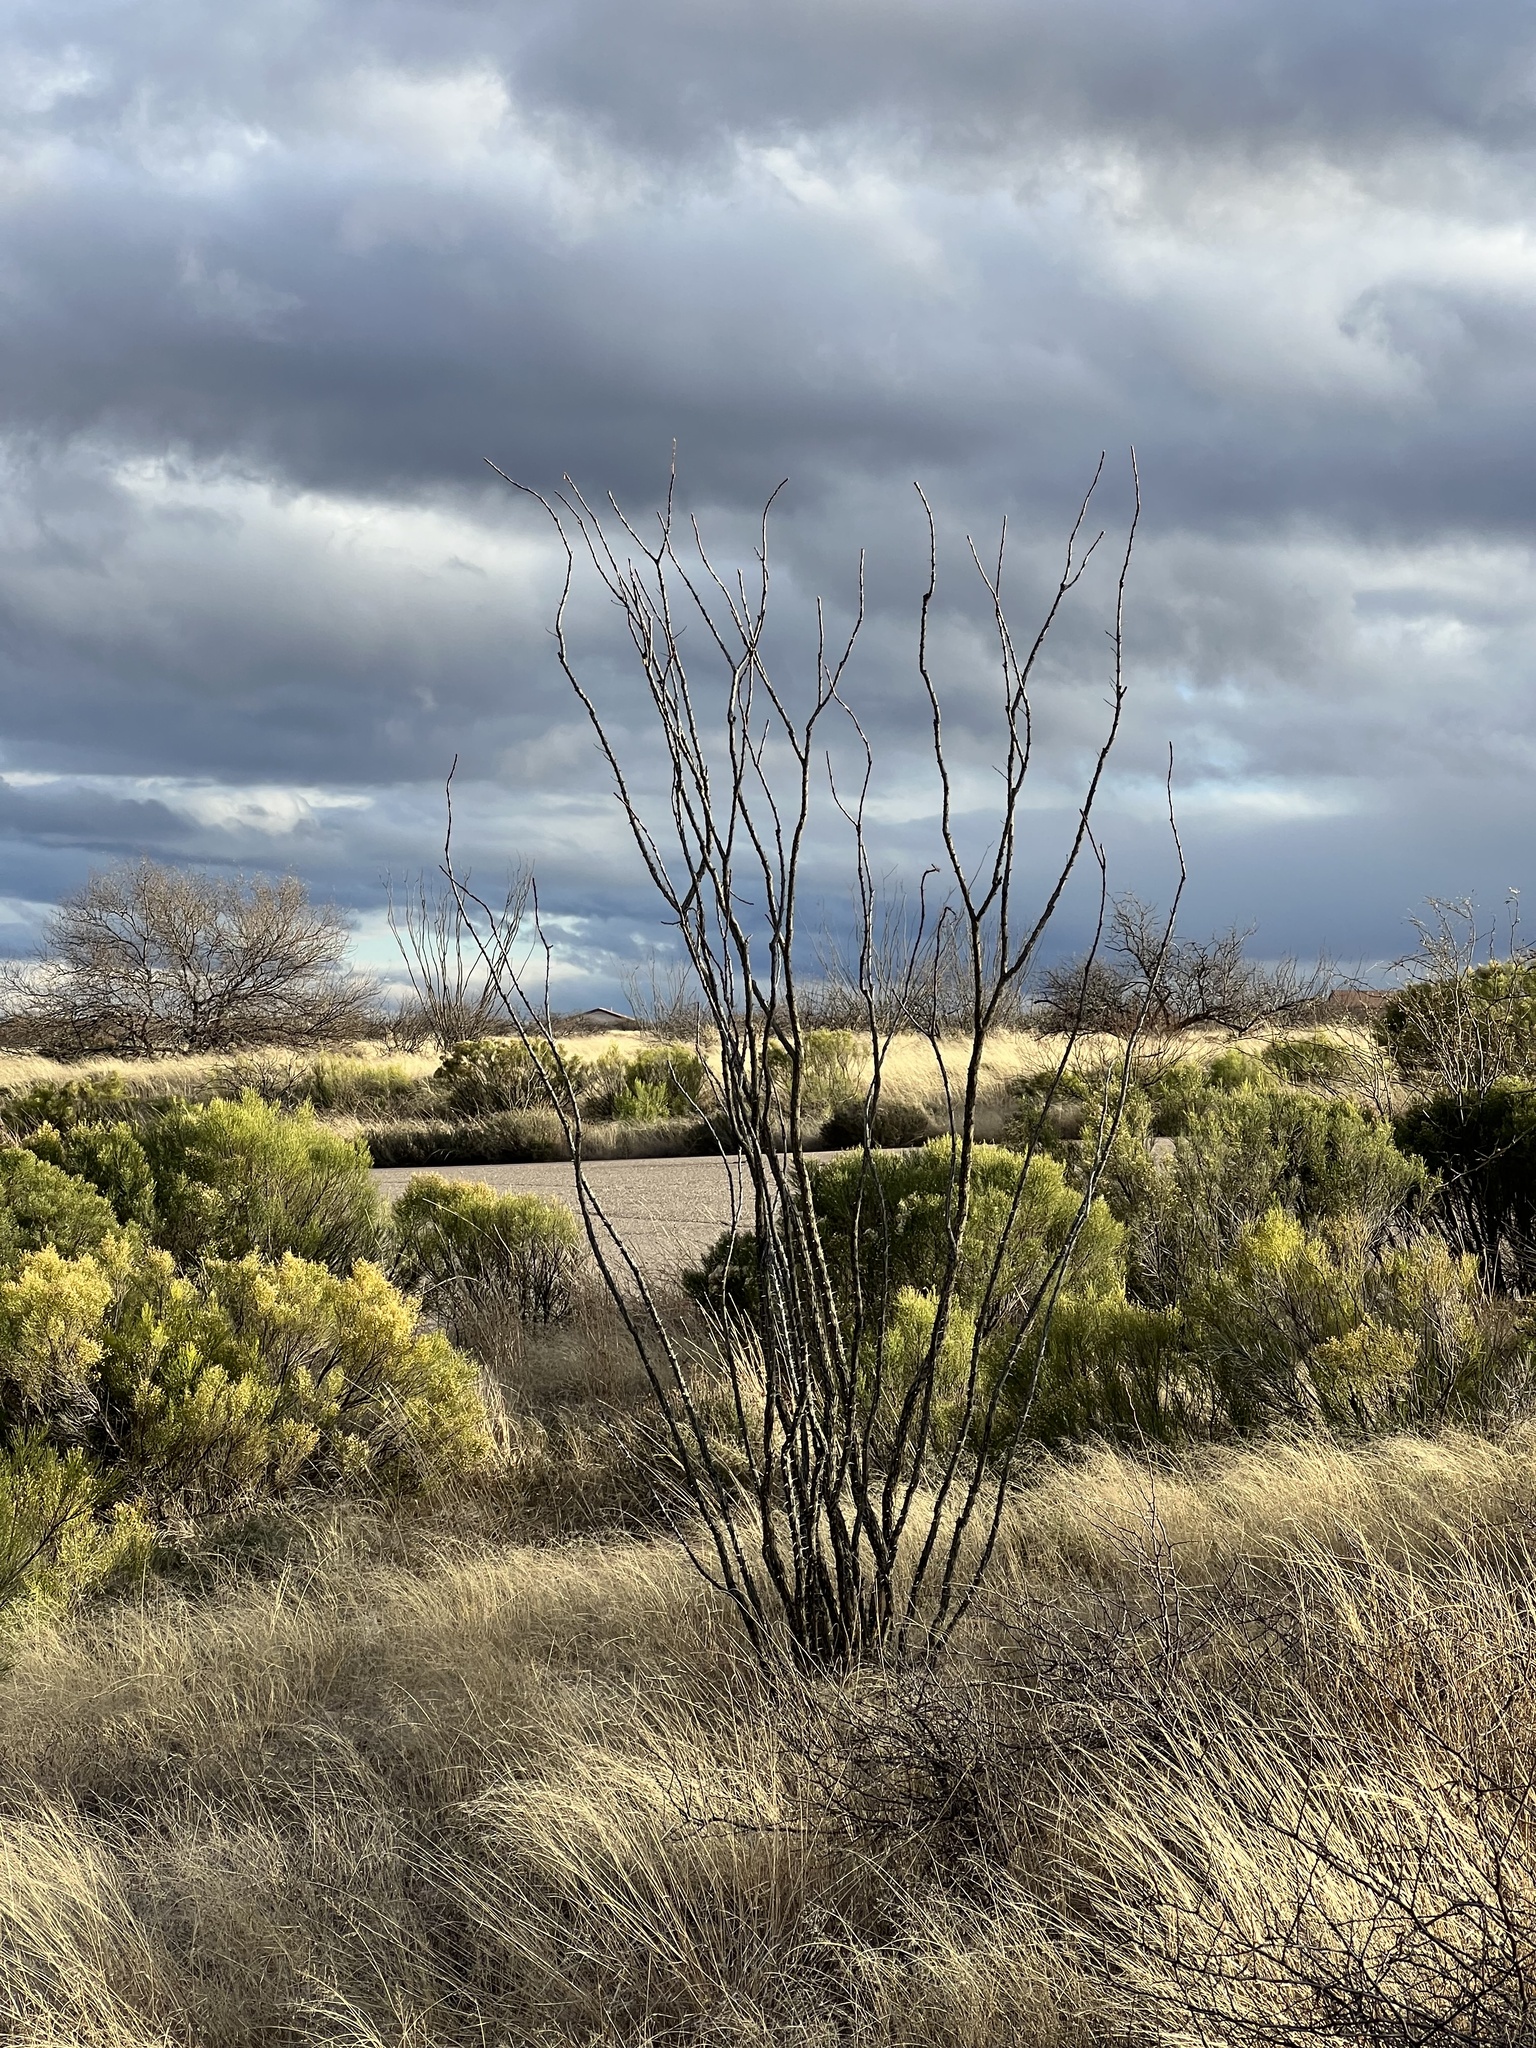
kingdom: Plantae
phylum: Tracheophyta
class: Magnoliopsida
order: Ericales
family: Fouquieriaceae
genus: Fouquieria
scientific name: Fouquieria splendens
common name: Vine-cactus
